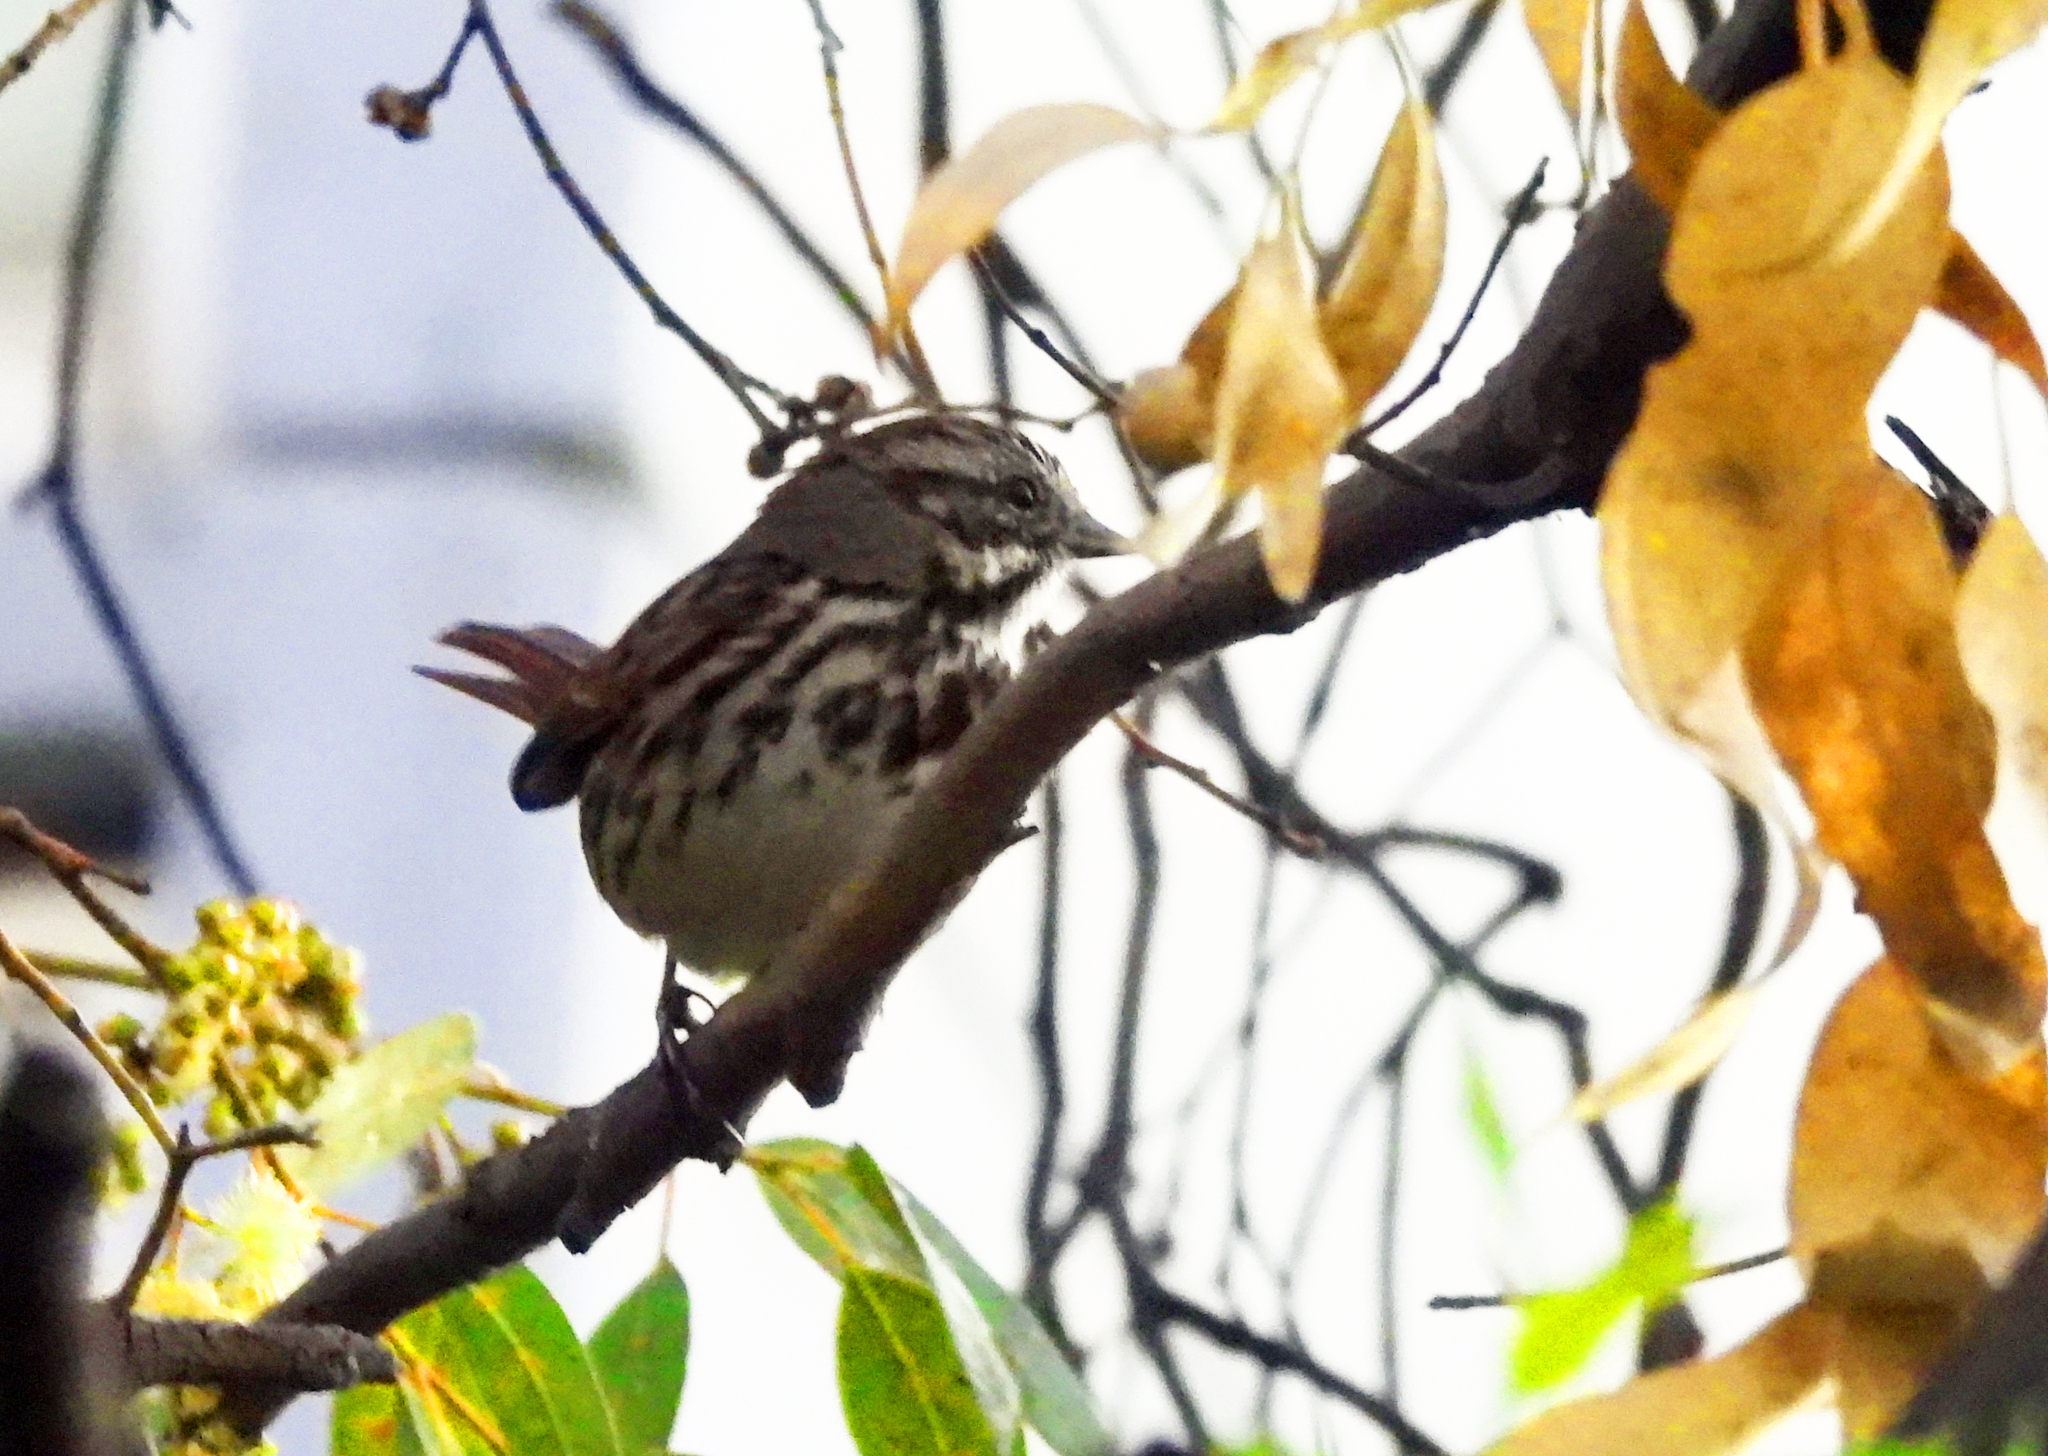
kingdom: Animalia
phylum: Chordata
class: Aves
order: Passeriformes
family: Passerellidae
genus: Melospiza
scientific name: Melospiza melodia
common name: Song sparrow
